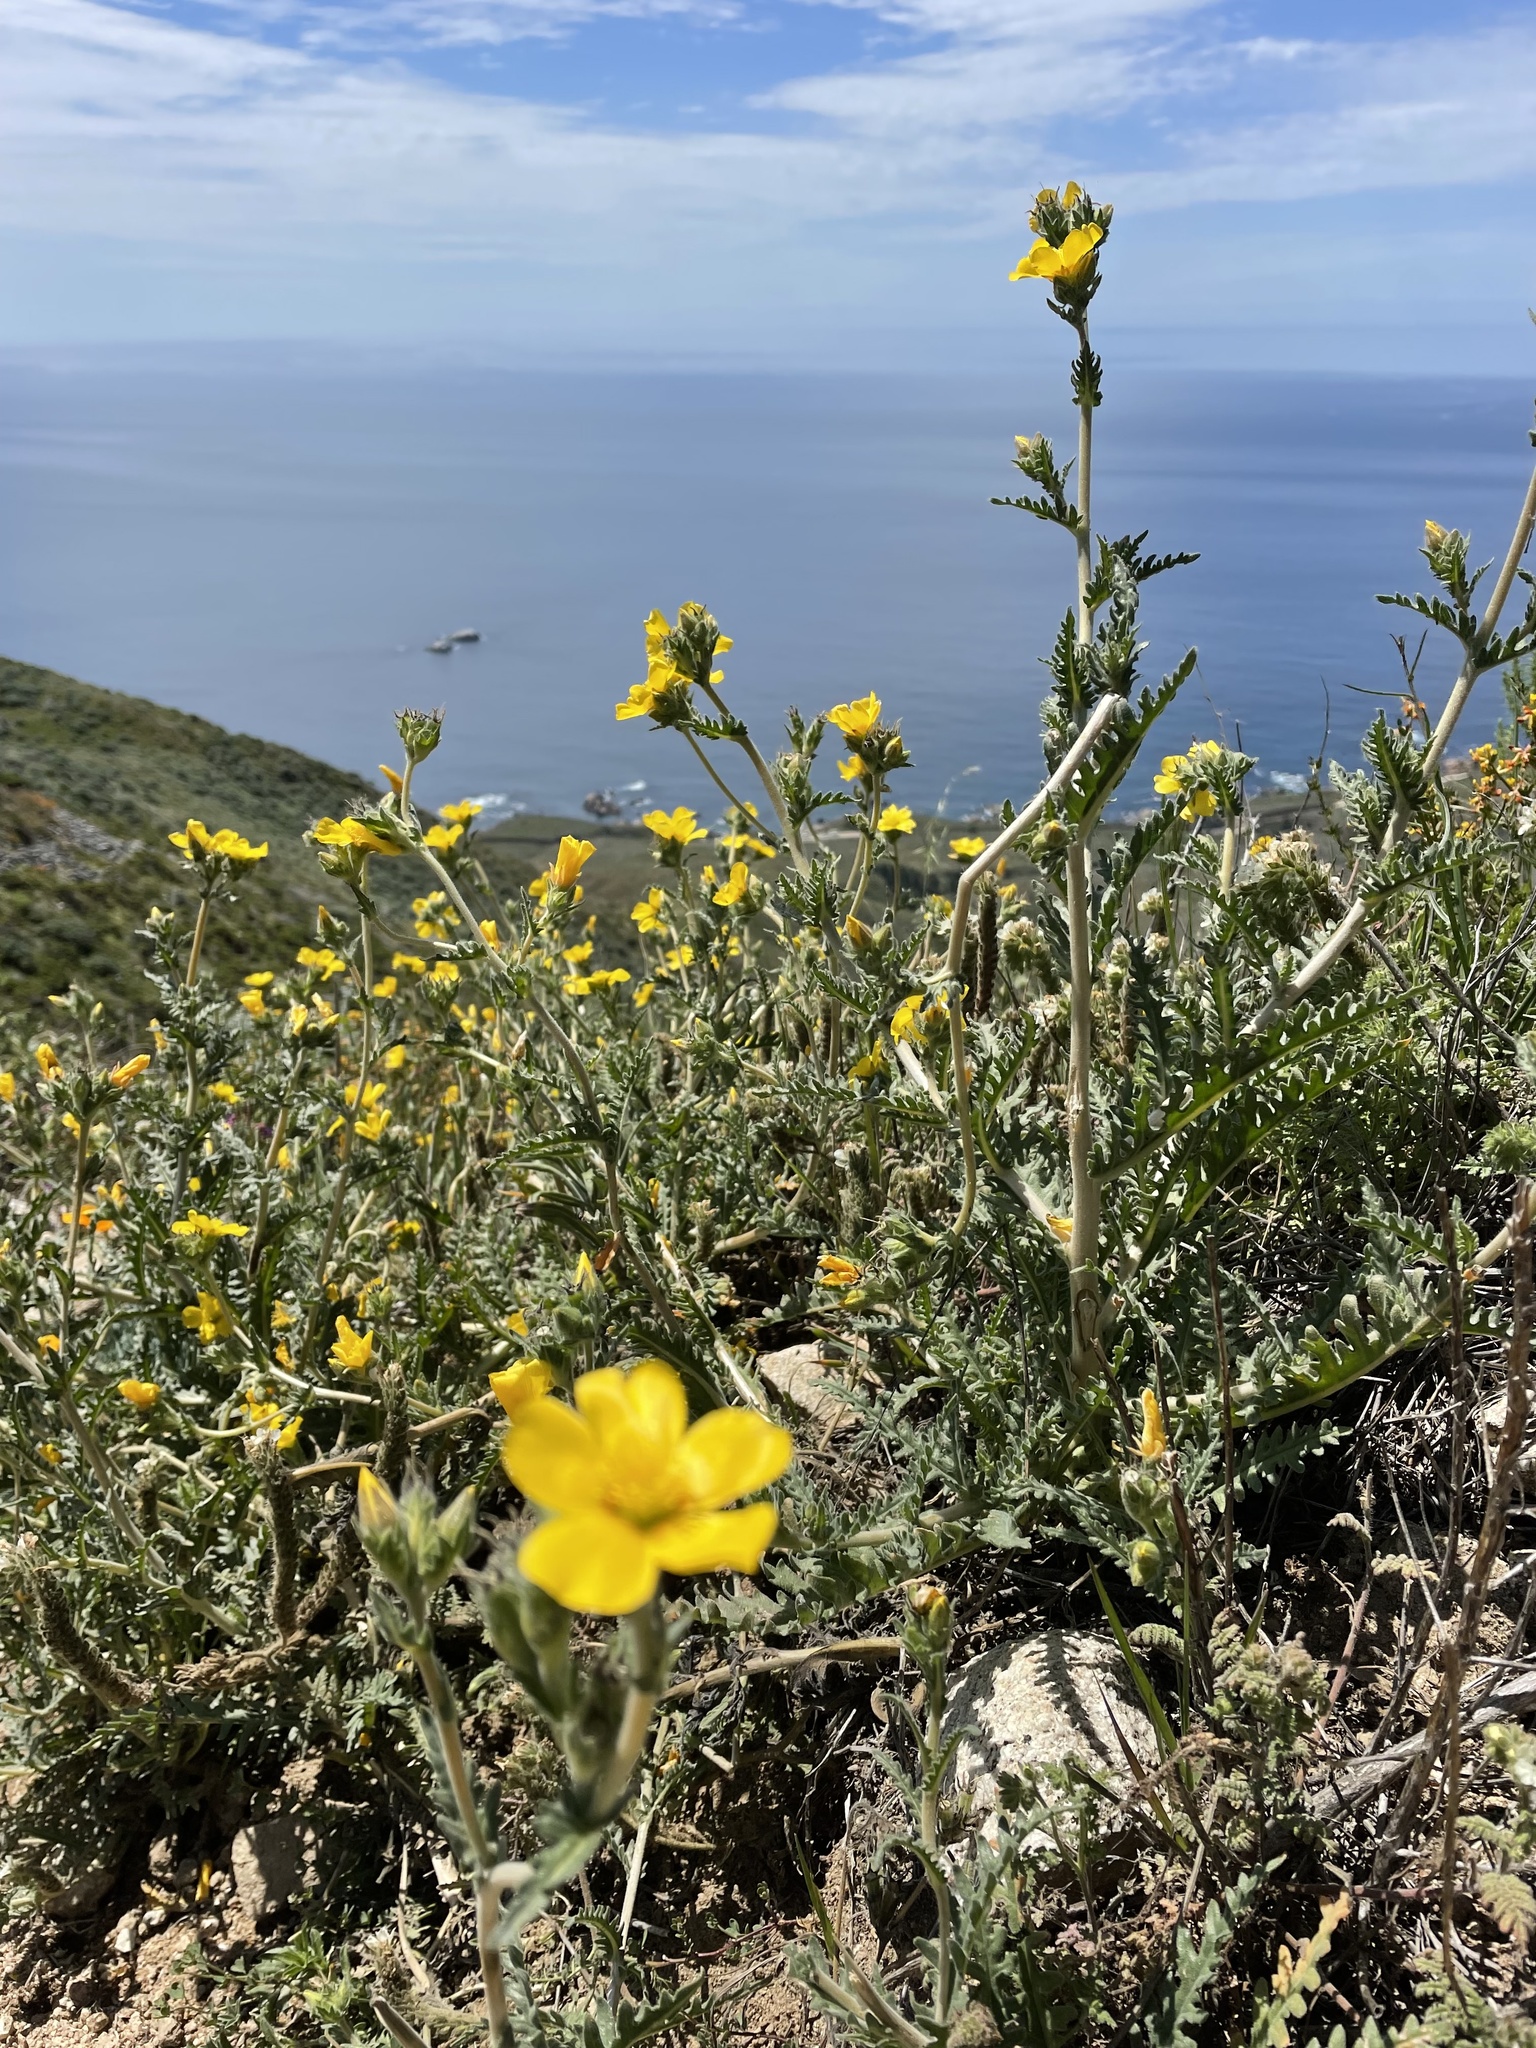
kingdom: Plantae
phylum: Tracheophyta
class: Magnoliopsida
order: Cornales
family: Loasaceae
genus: Mentzelia
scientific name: Mentzelia gracilenta
